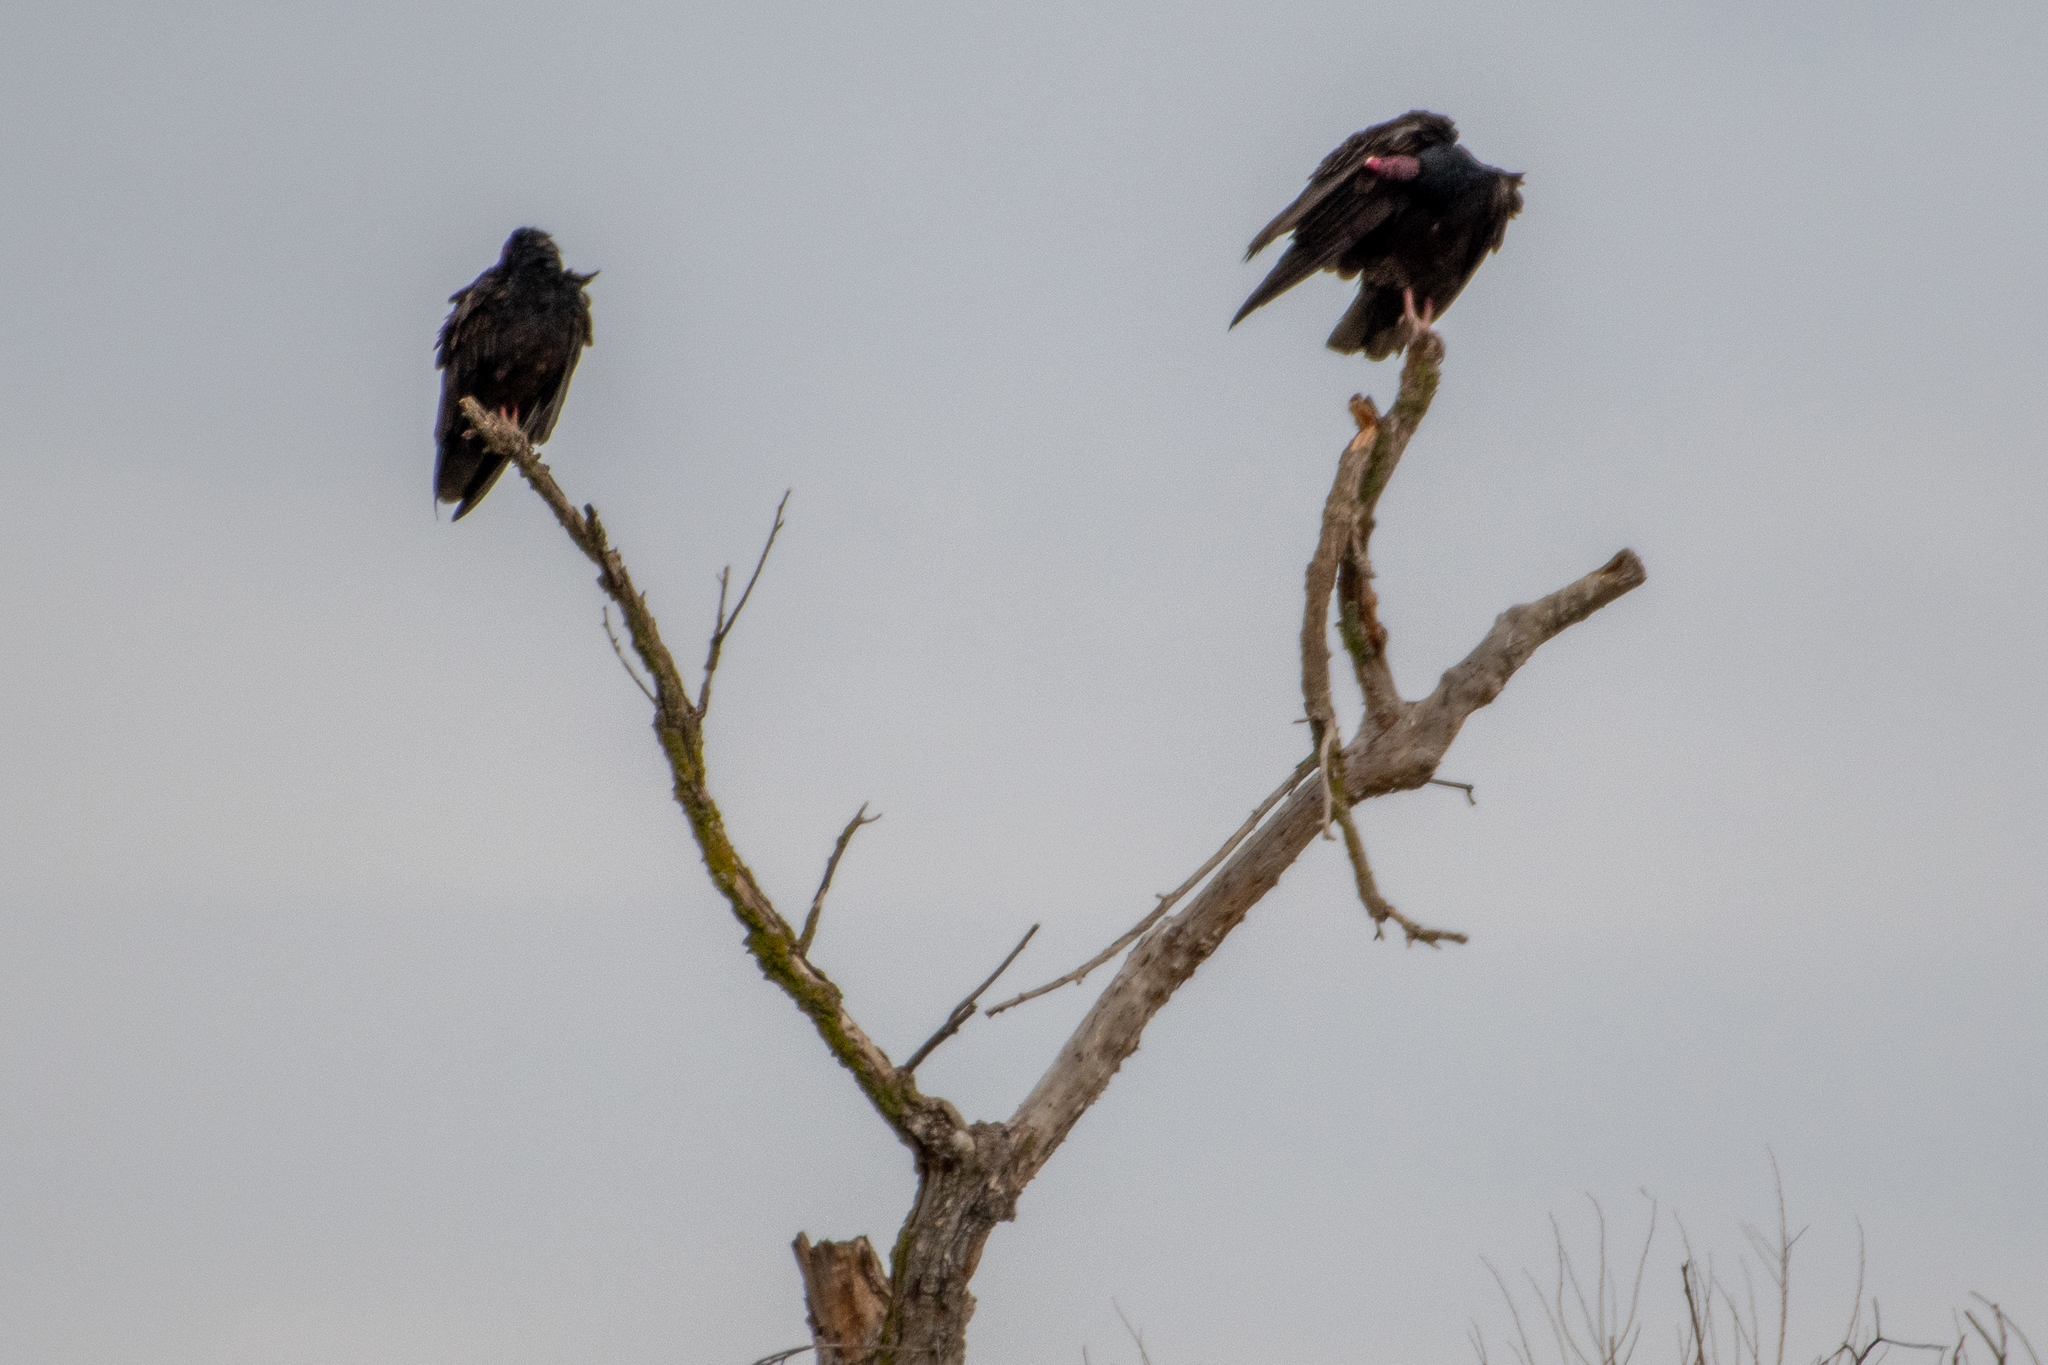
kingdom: Animalia
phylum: Chordata
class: Aves
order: Accipitriformes
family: Cathartidae
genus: Cathartes
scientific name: Cathartes aura
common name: Turkey vulture
